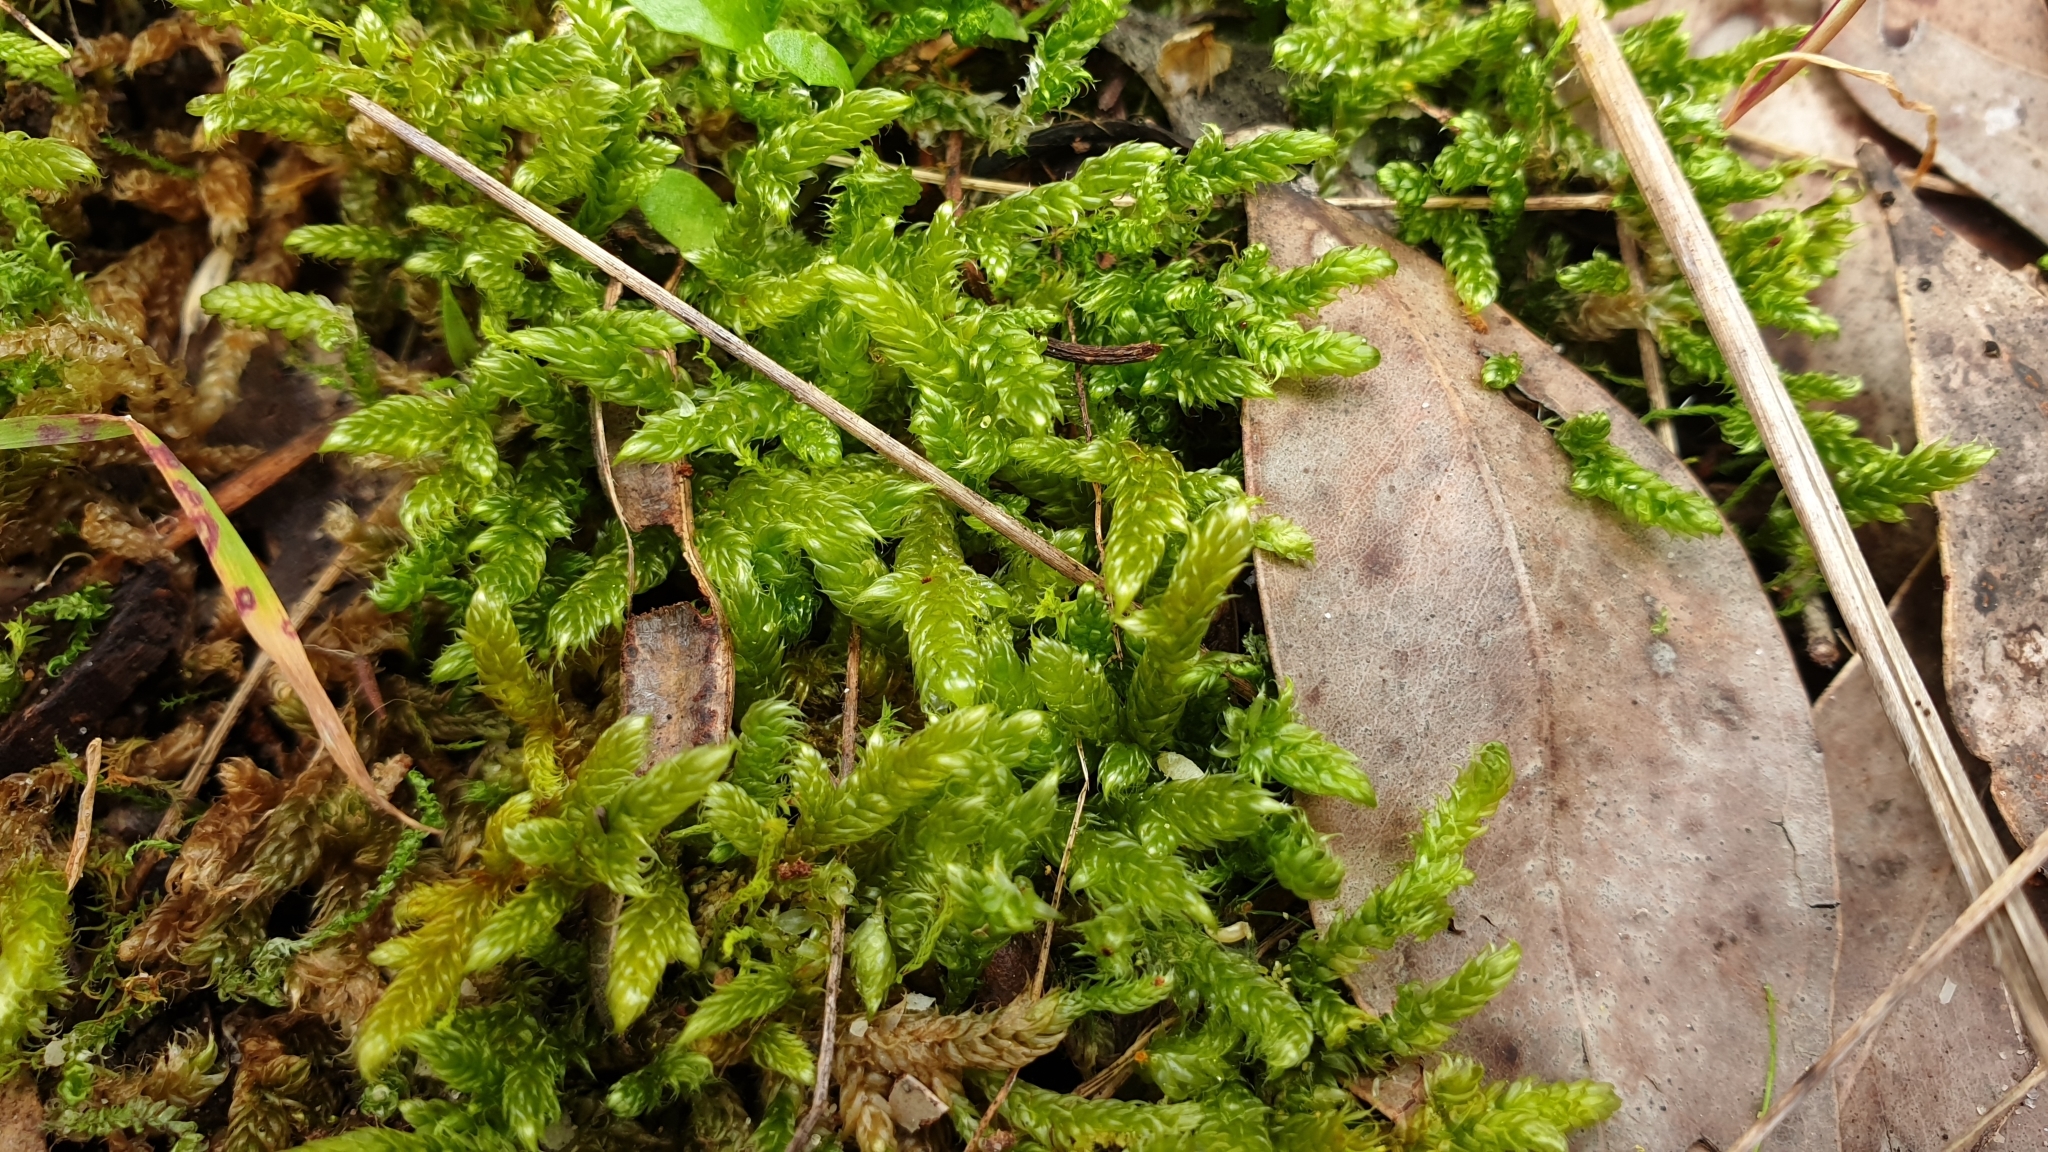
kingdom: Plantae
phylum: Bryophyta
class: Bryopsida
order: Hypnales
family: Hypnaceae
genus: Hypnum
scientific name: Hypnum cupressiforme
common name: Cypress-leaved plait-moss
